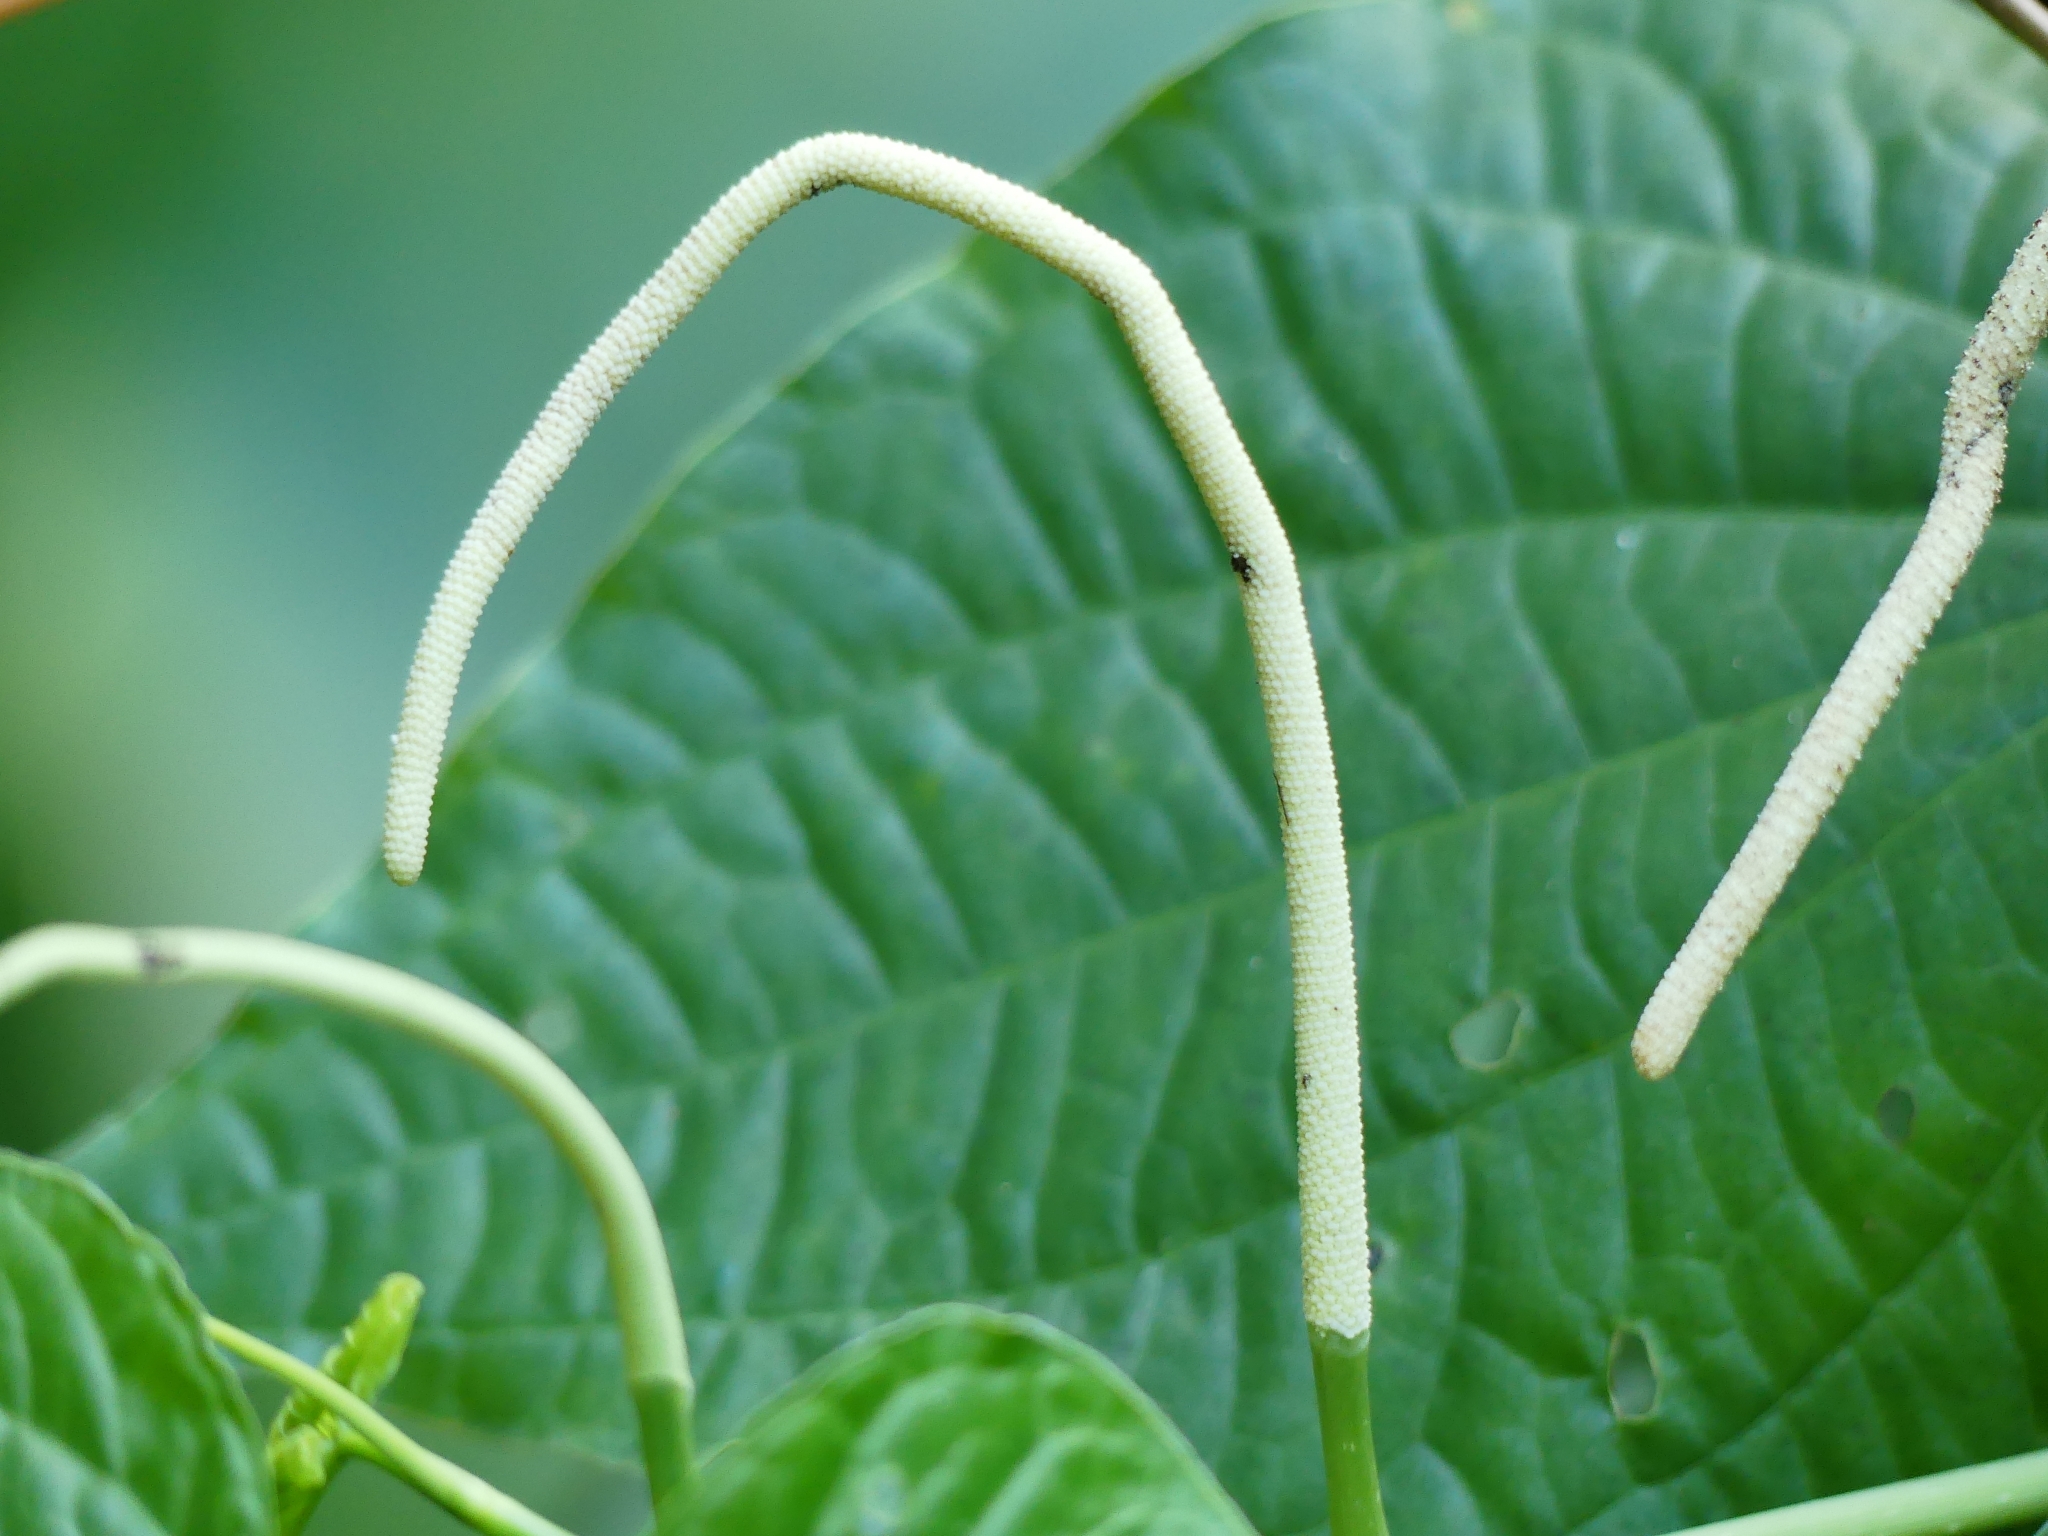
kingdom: Plantae
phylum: Tracheophyta
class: Magnoliopsida
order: Piperales
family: Piperaceae
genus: Piper
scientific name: Piper marginatum
